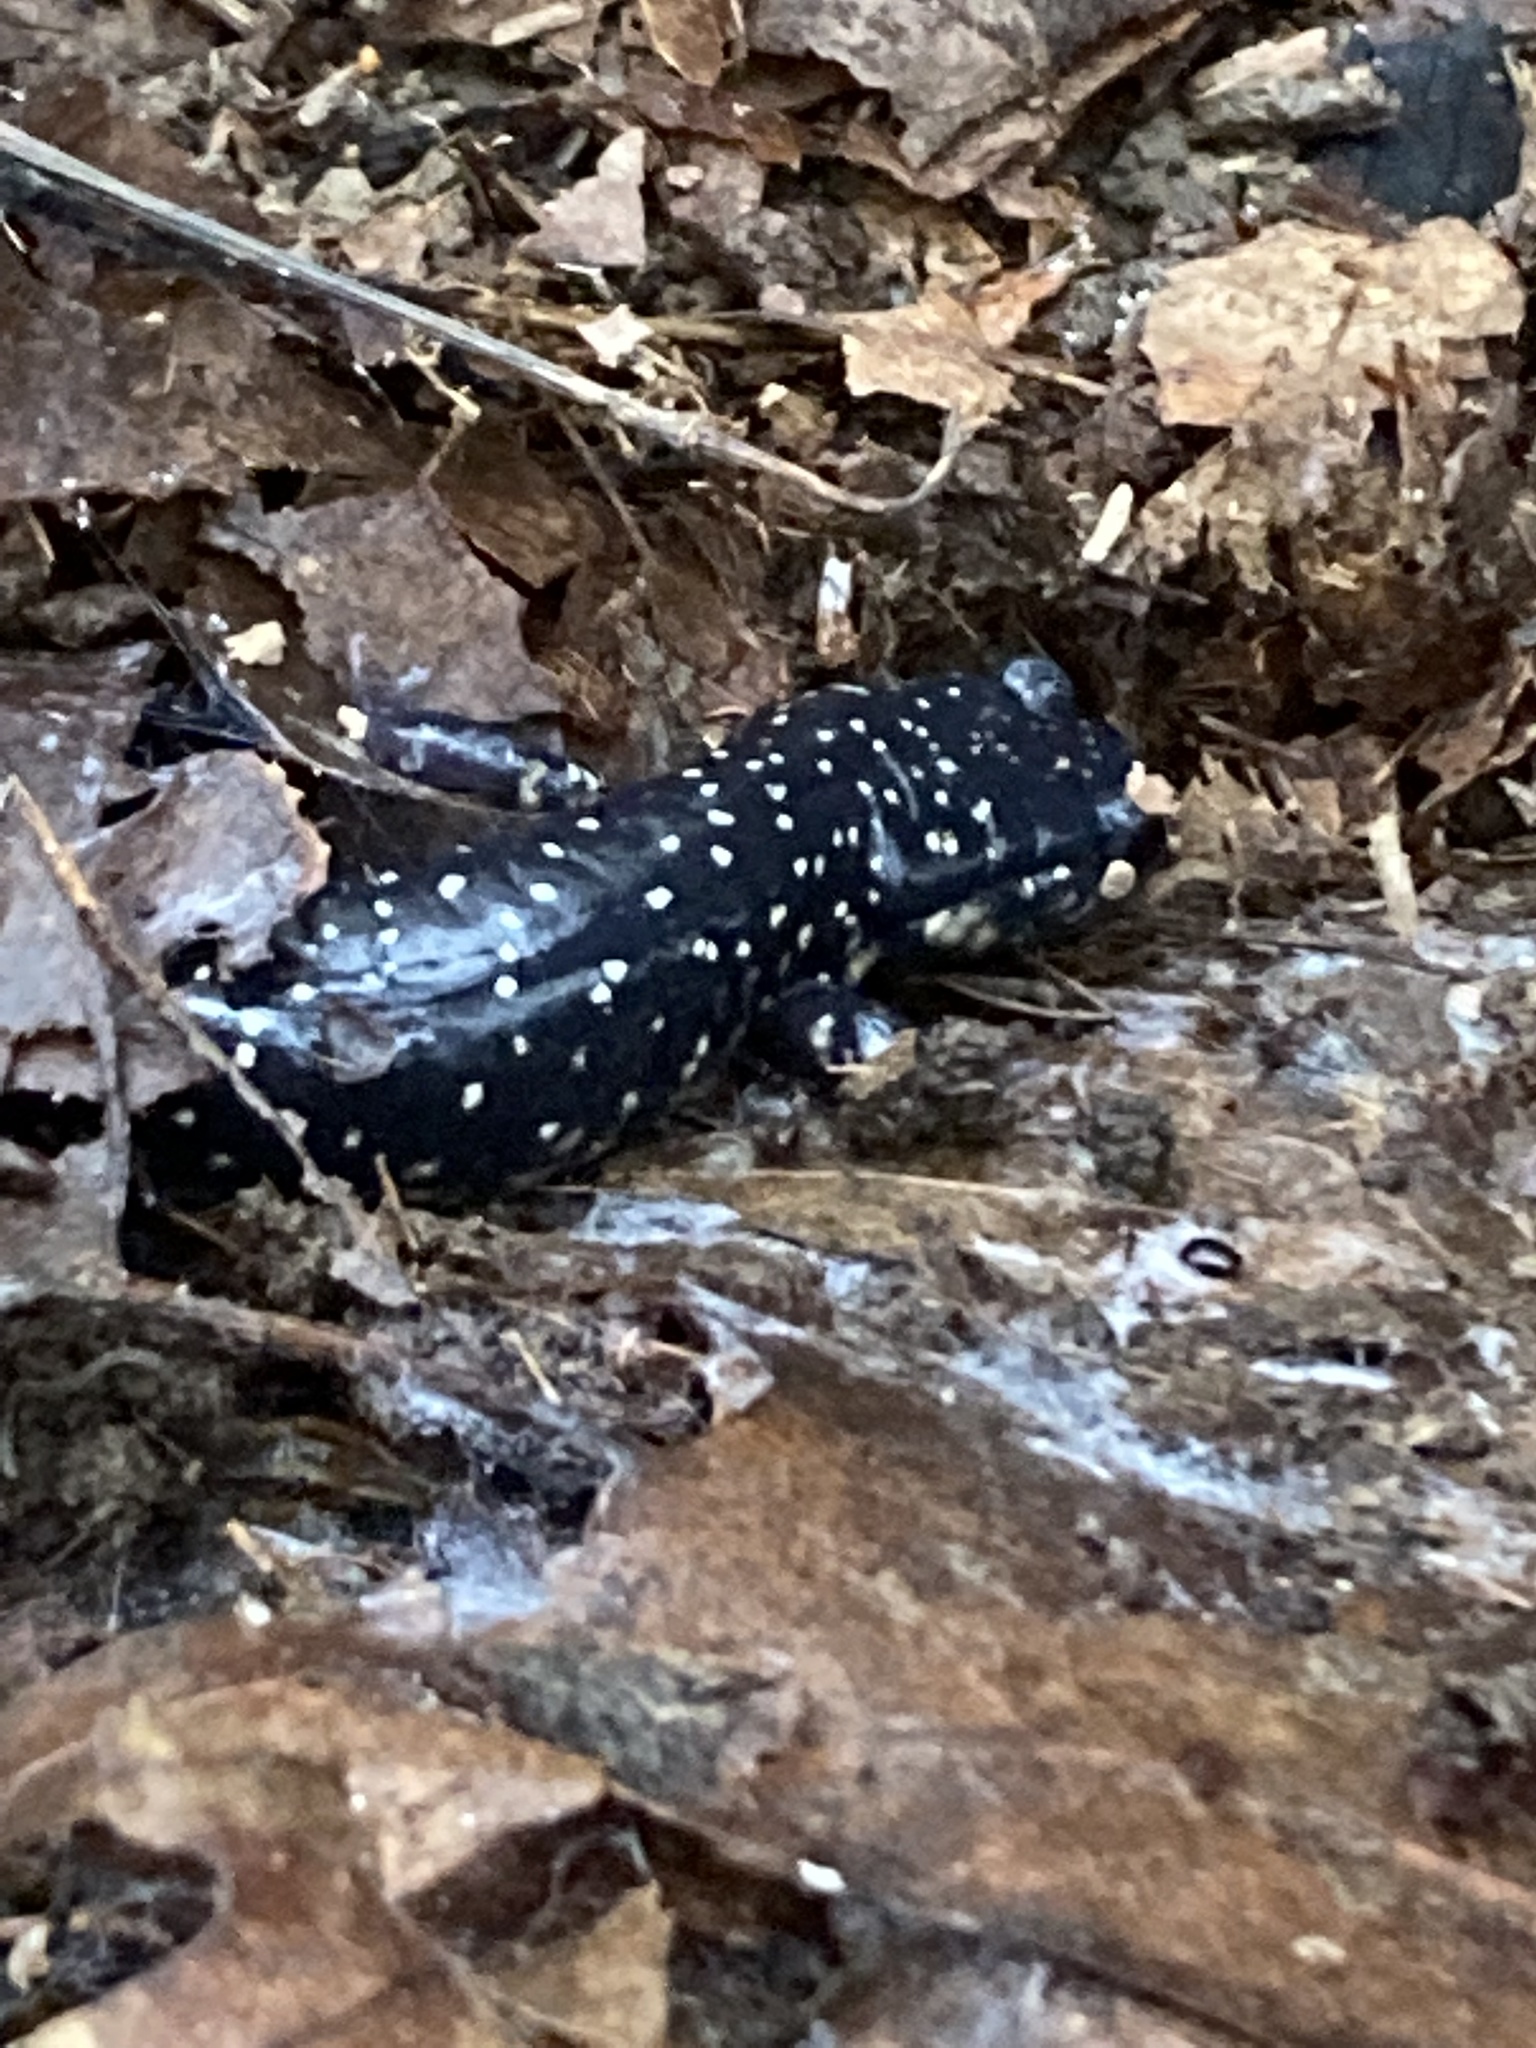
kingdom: Animalia
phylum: Chordata
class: Amphibia
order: Caudata
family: Plethodontidae
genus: Plethodon
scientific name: Plethodon glutinosus
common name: Northern slimy salamander
